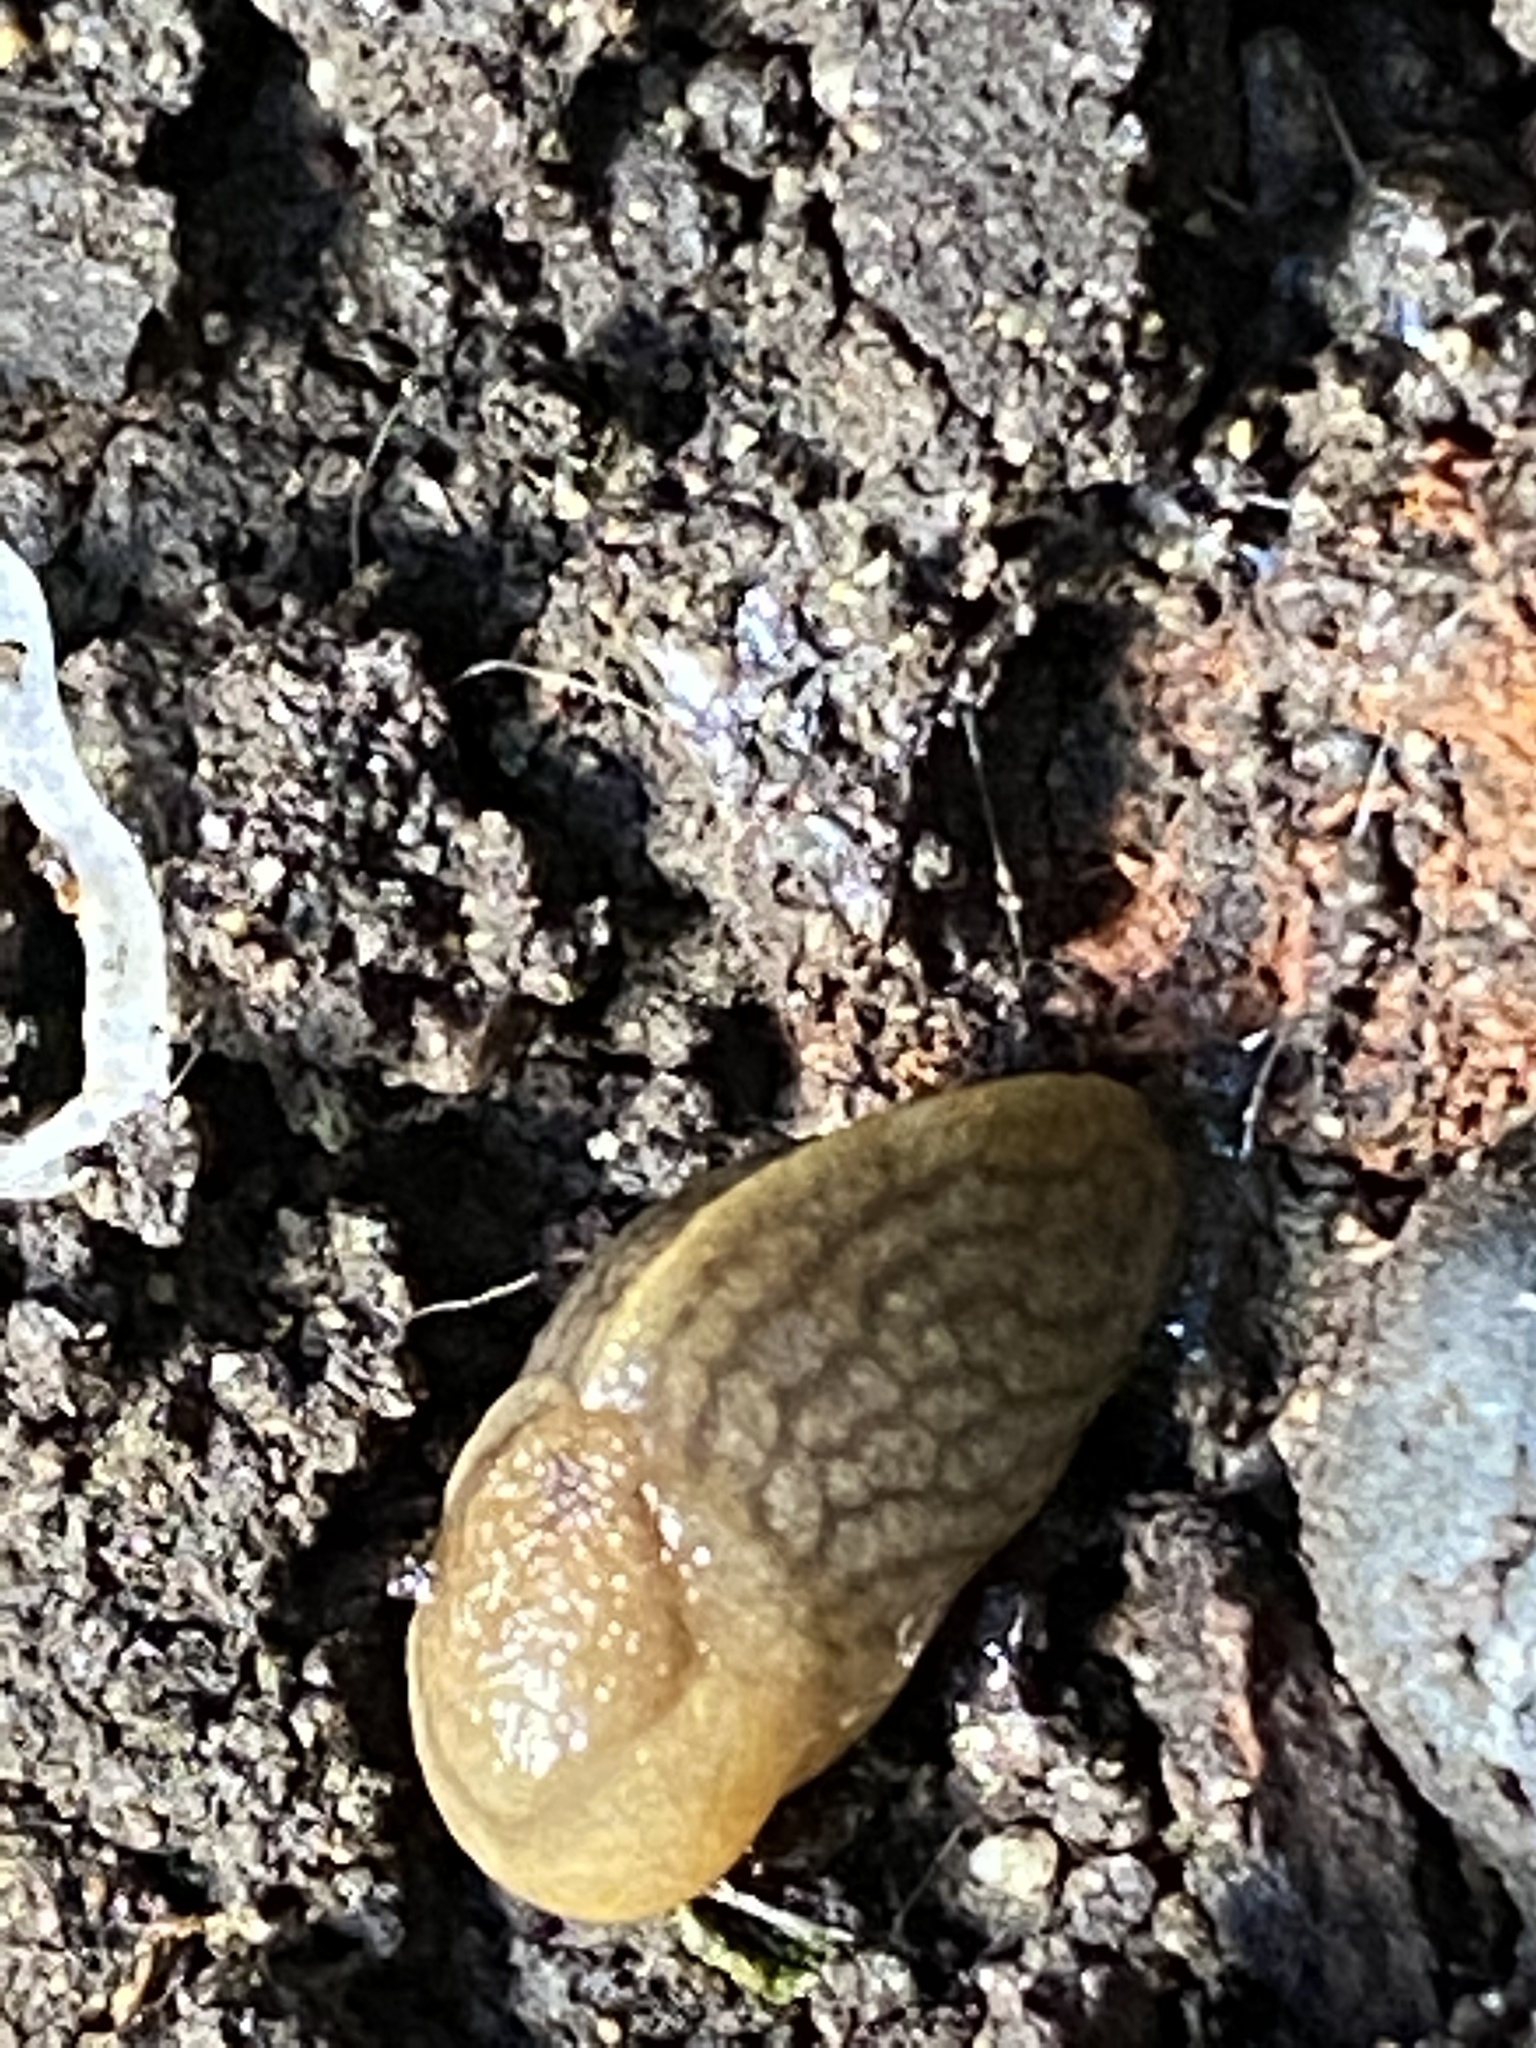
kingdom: Animalia
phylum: Mollusca
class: Gastropoda
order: Stylommatophora
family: Milacidae
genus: Milax
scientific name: Milax gagates
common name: Greenhouse slug
